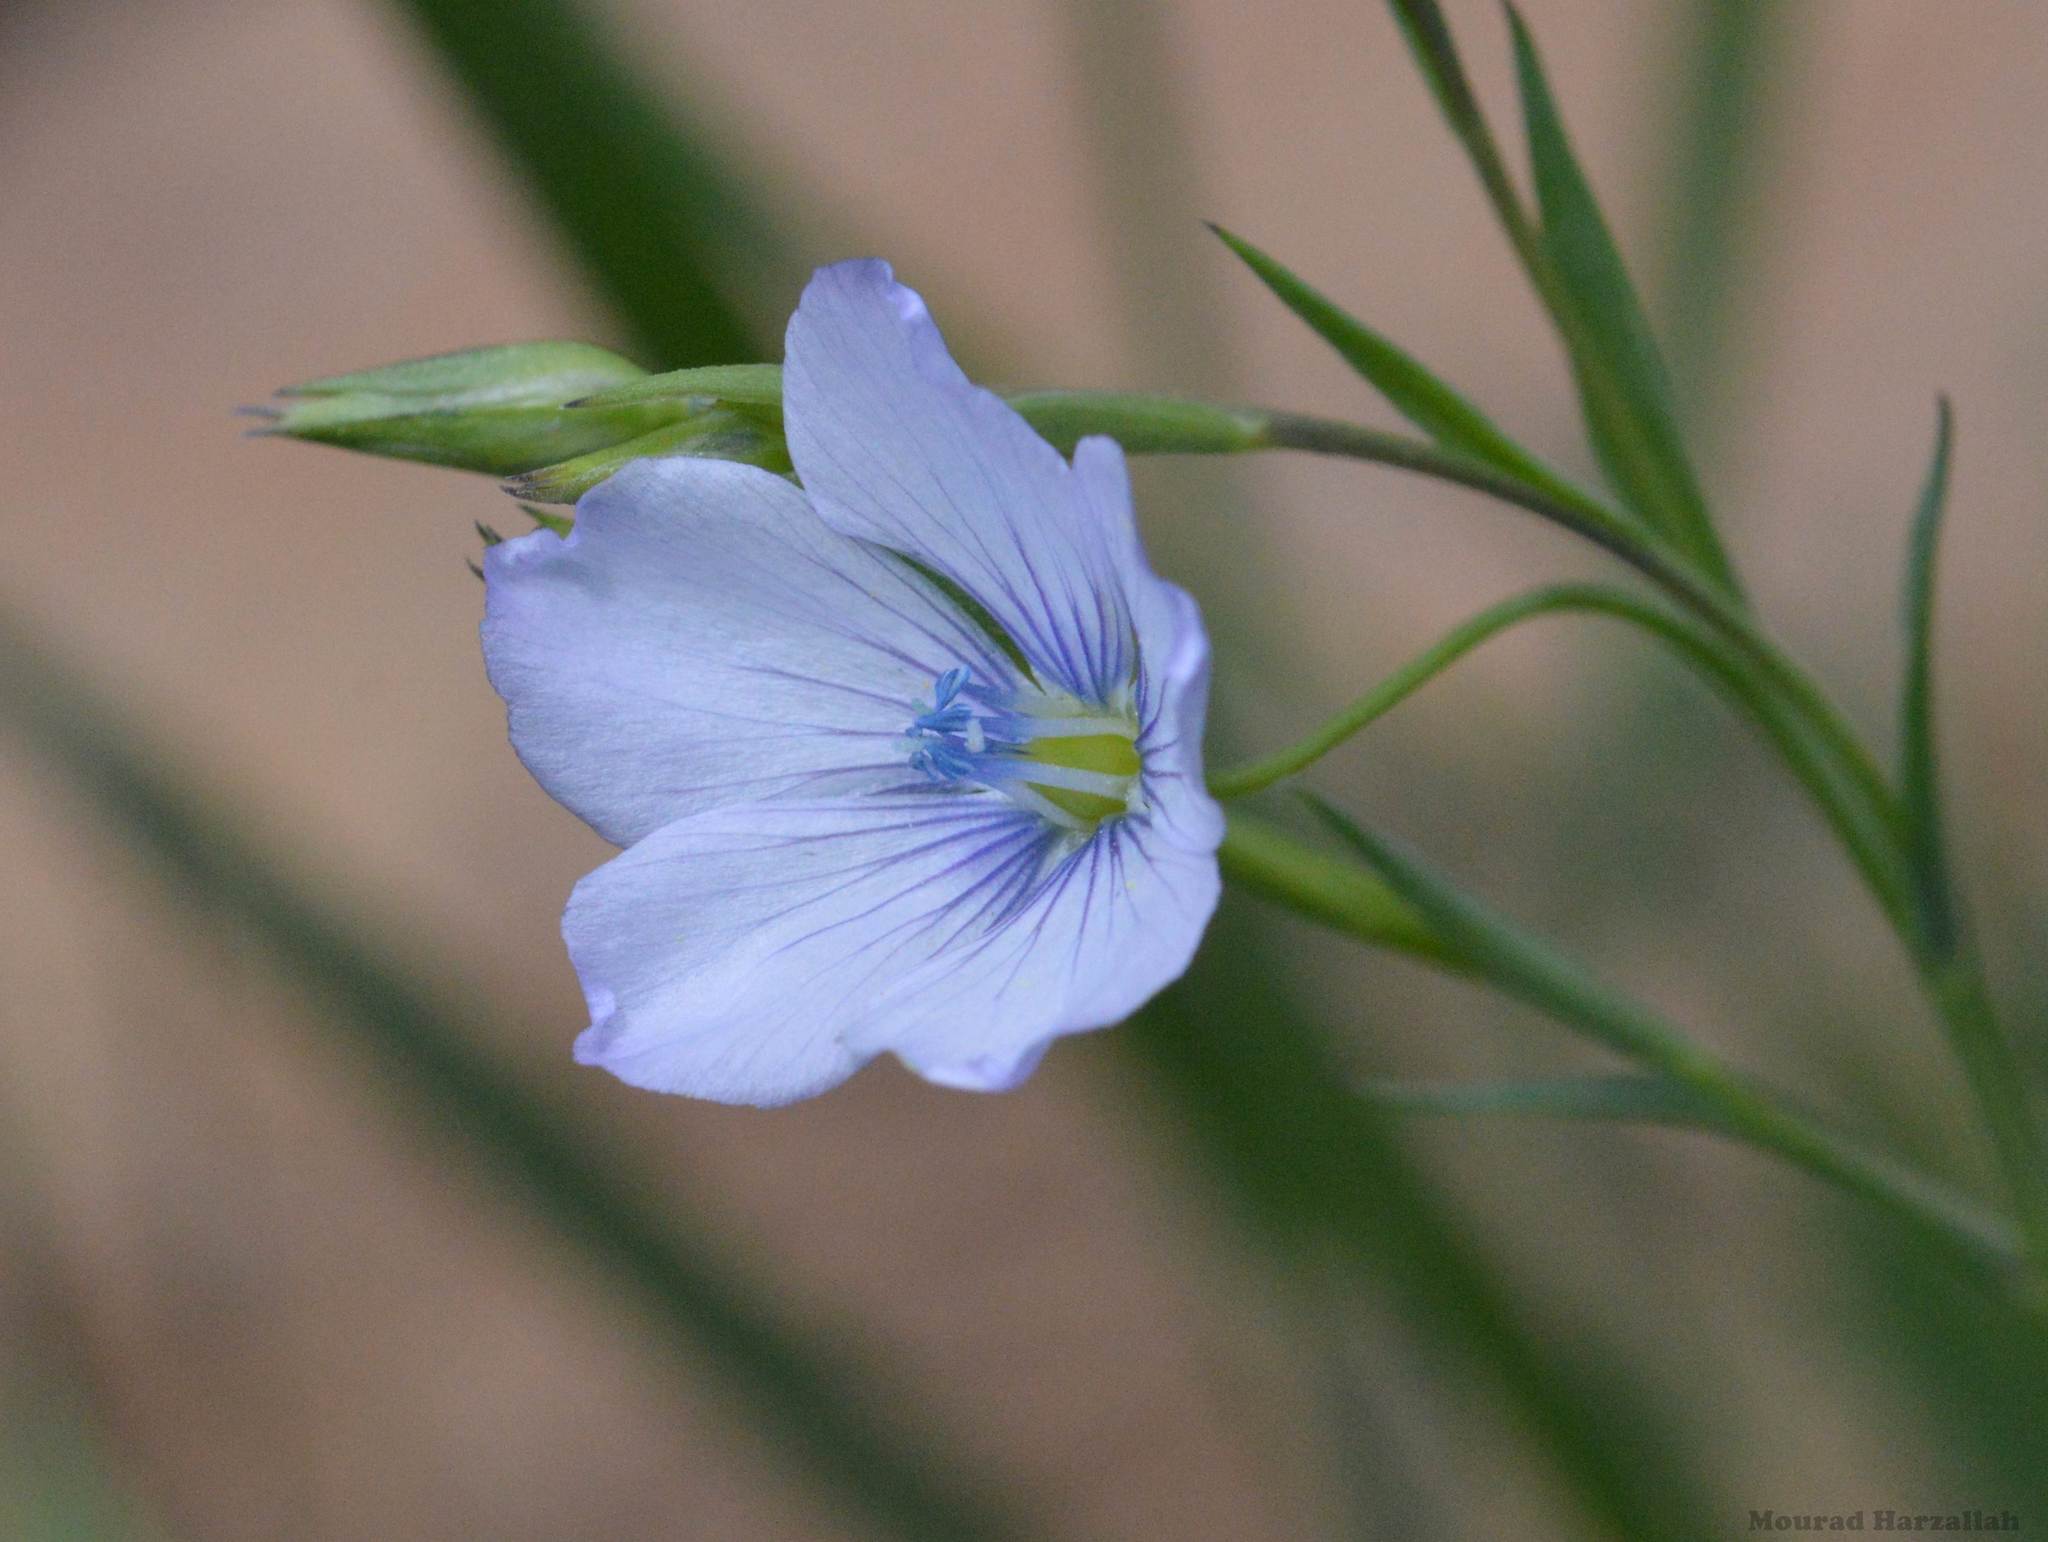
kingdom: Plantae
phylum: Tracheophyta
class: Magnoliopsida
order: Malpighiales
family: Linaceae
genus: Linum
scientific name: Linum usitatissimum
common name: Flax
